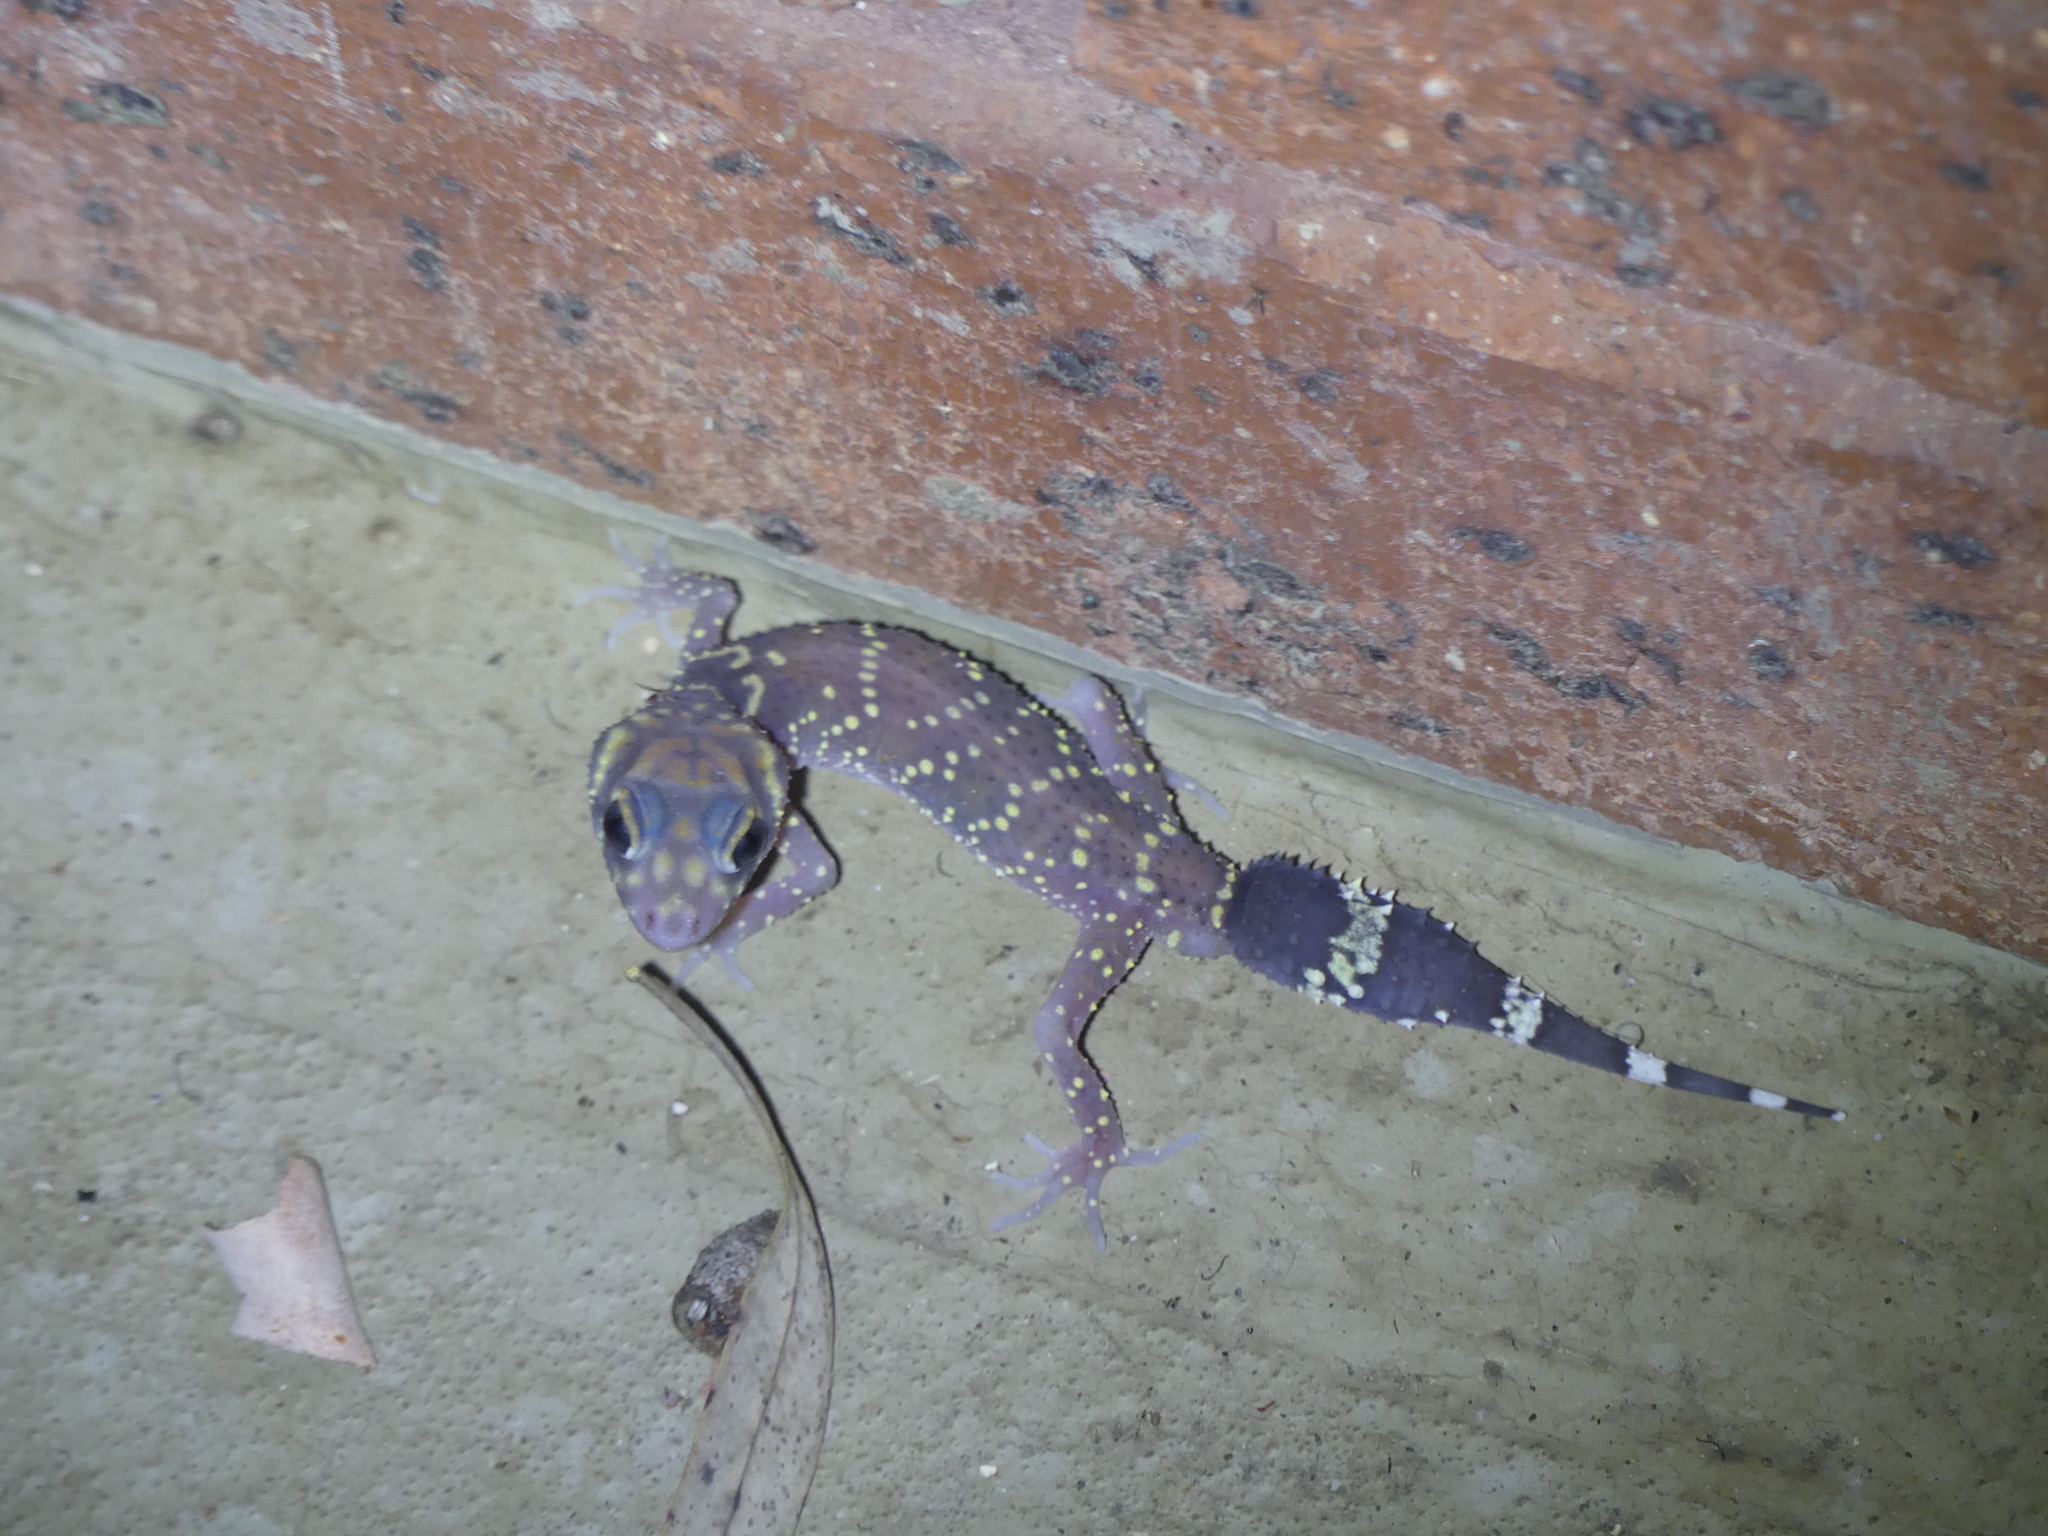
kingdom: Animalia
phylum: Chordata
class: Squamata
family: Carphodactylidae
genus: Underwoodisaurus
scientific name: Underwoodisaurus milii
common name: Barking gecko
